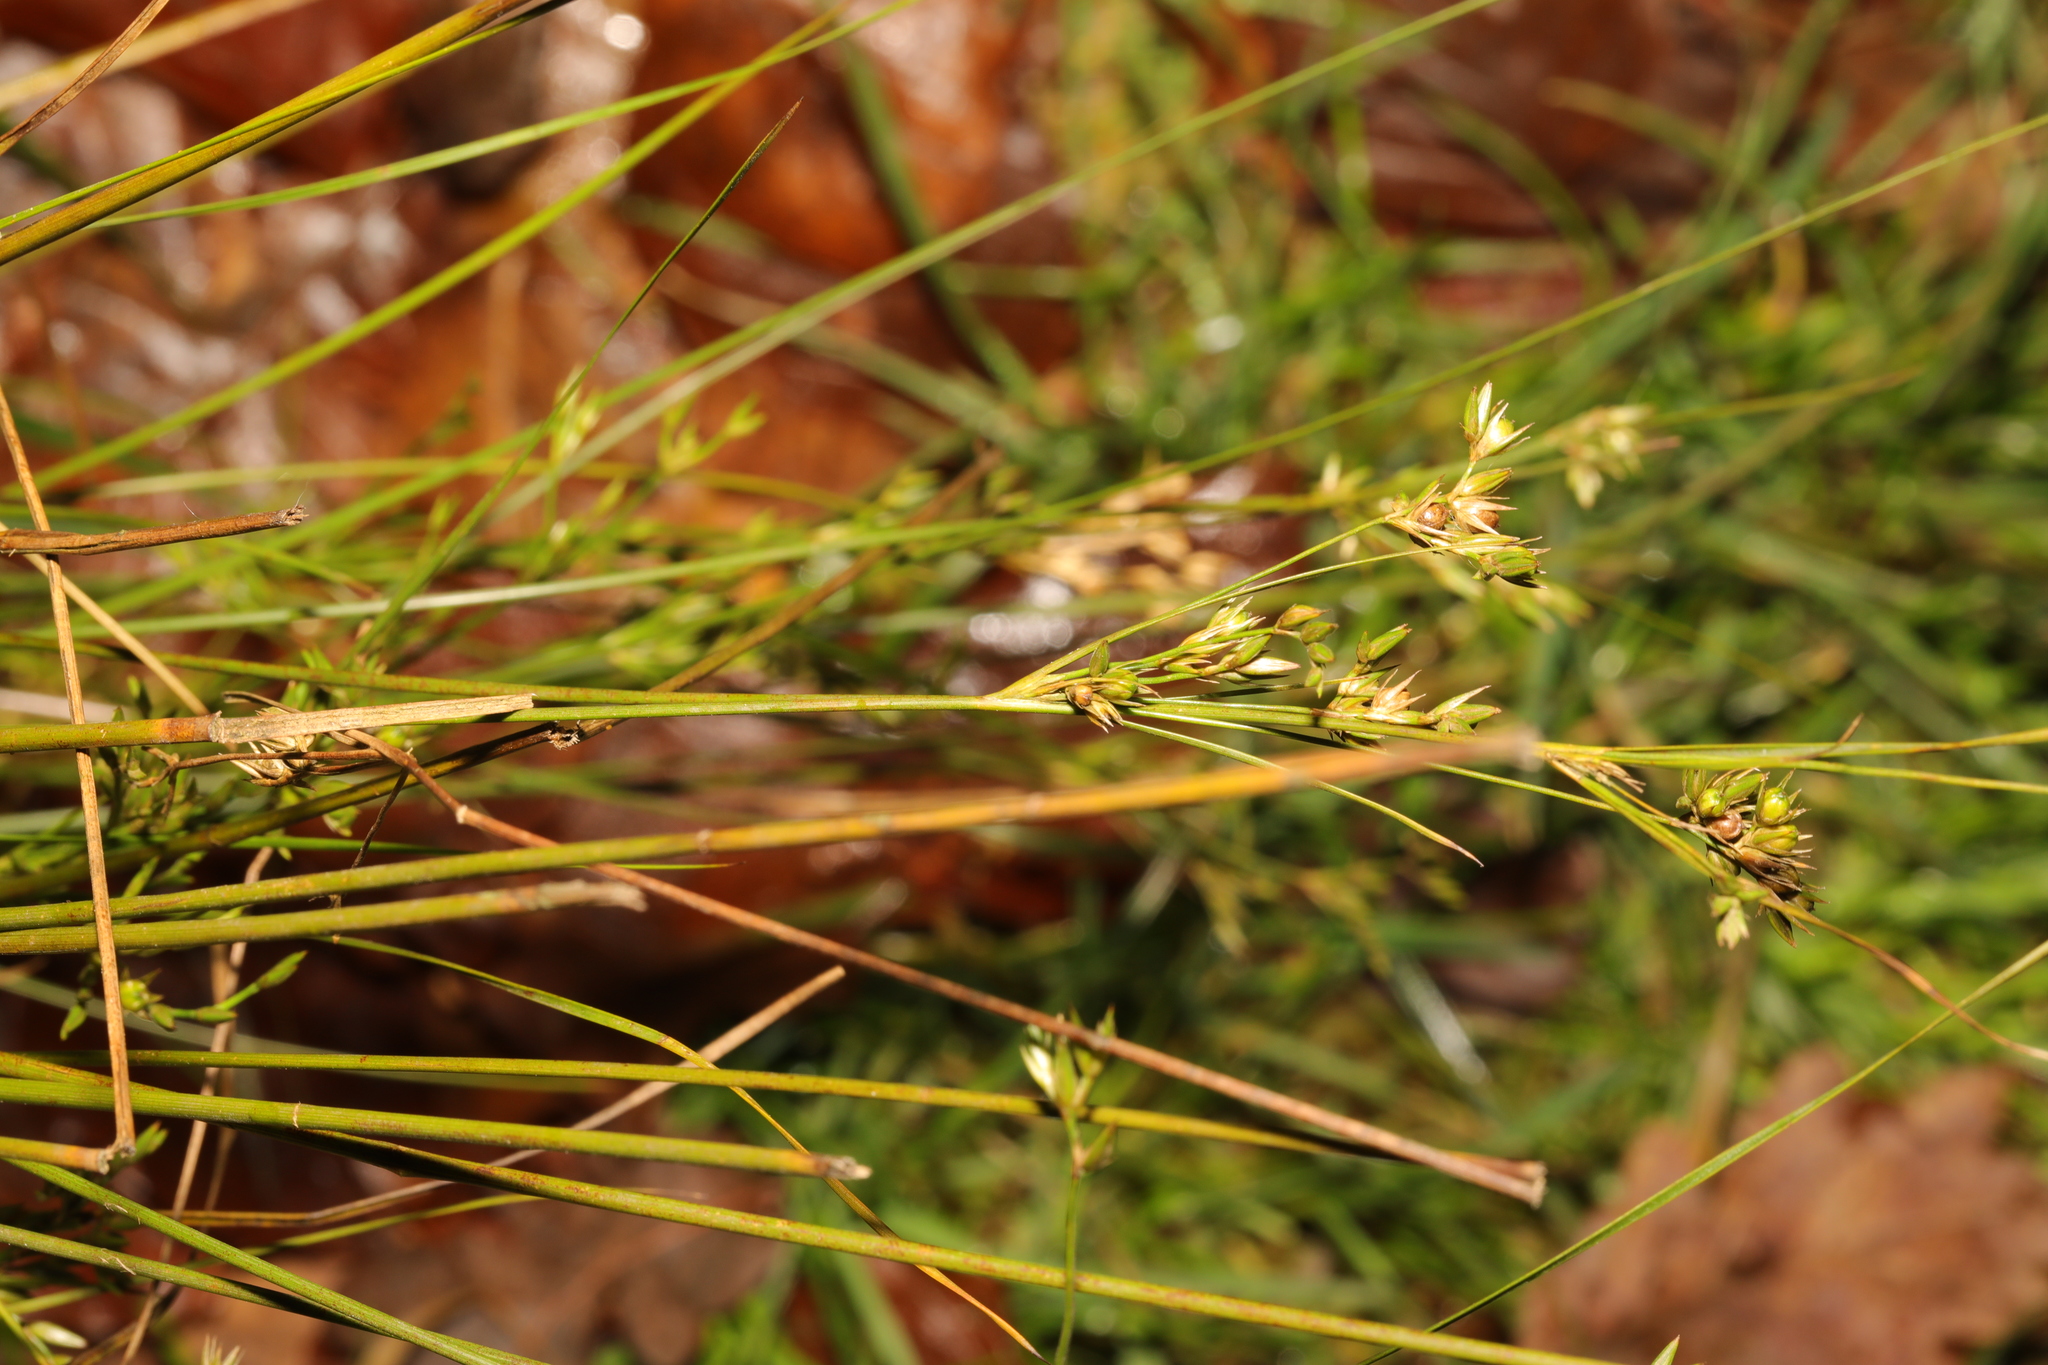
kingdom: Plantae
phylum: Tracheophyta
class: Liliopsida
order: Poales
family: Juncaceae
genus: Juncus
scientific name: Juncus tenuis
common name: Slender rush
